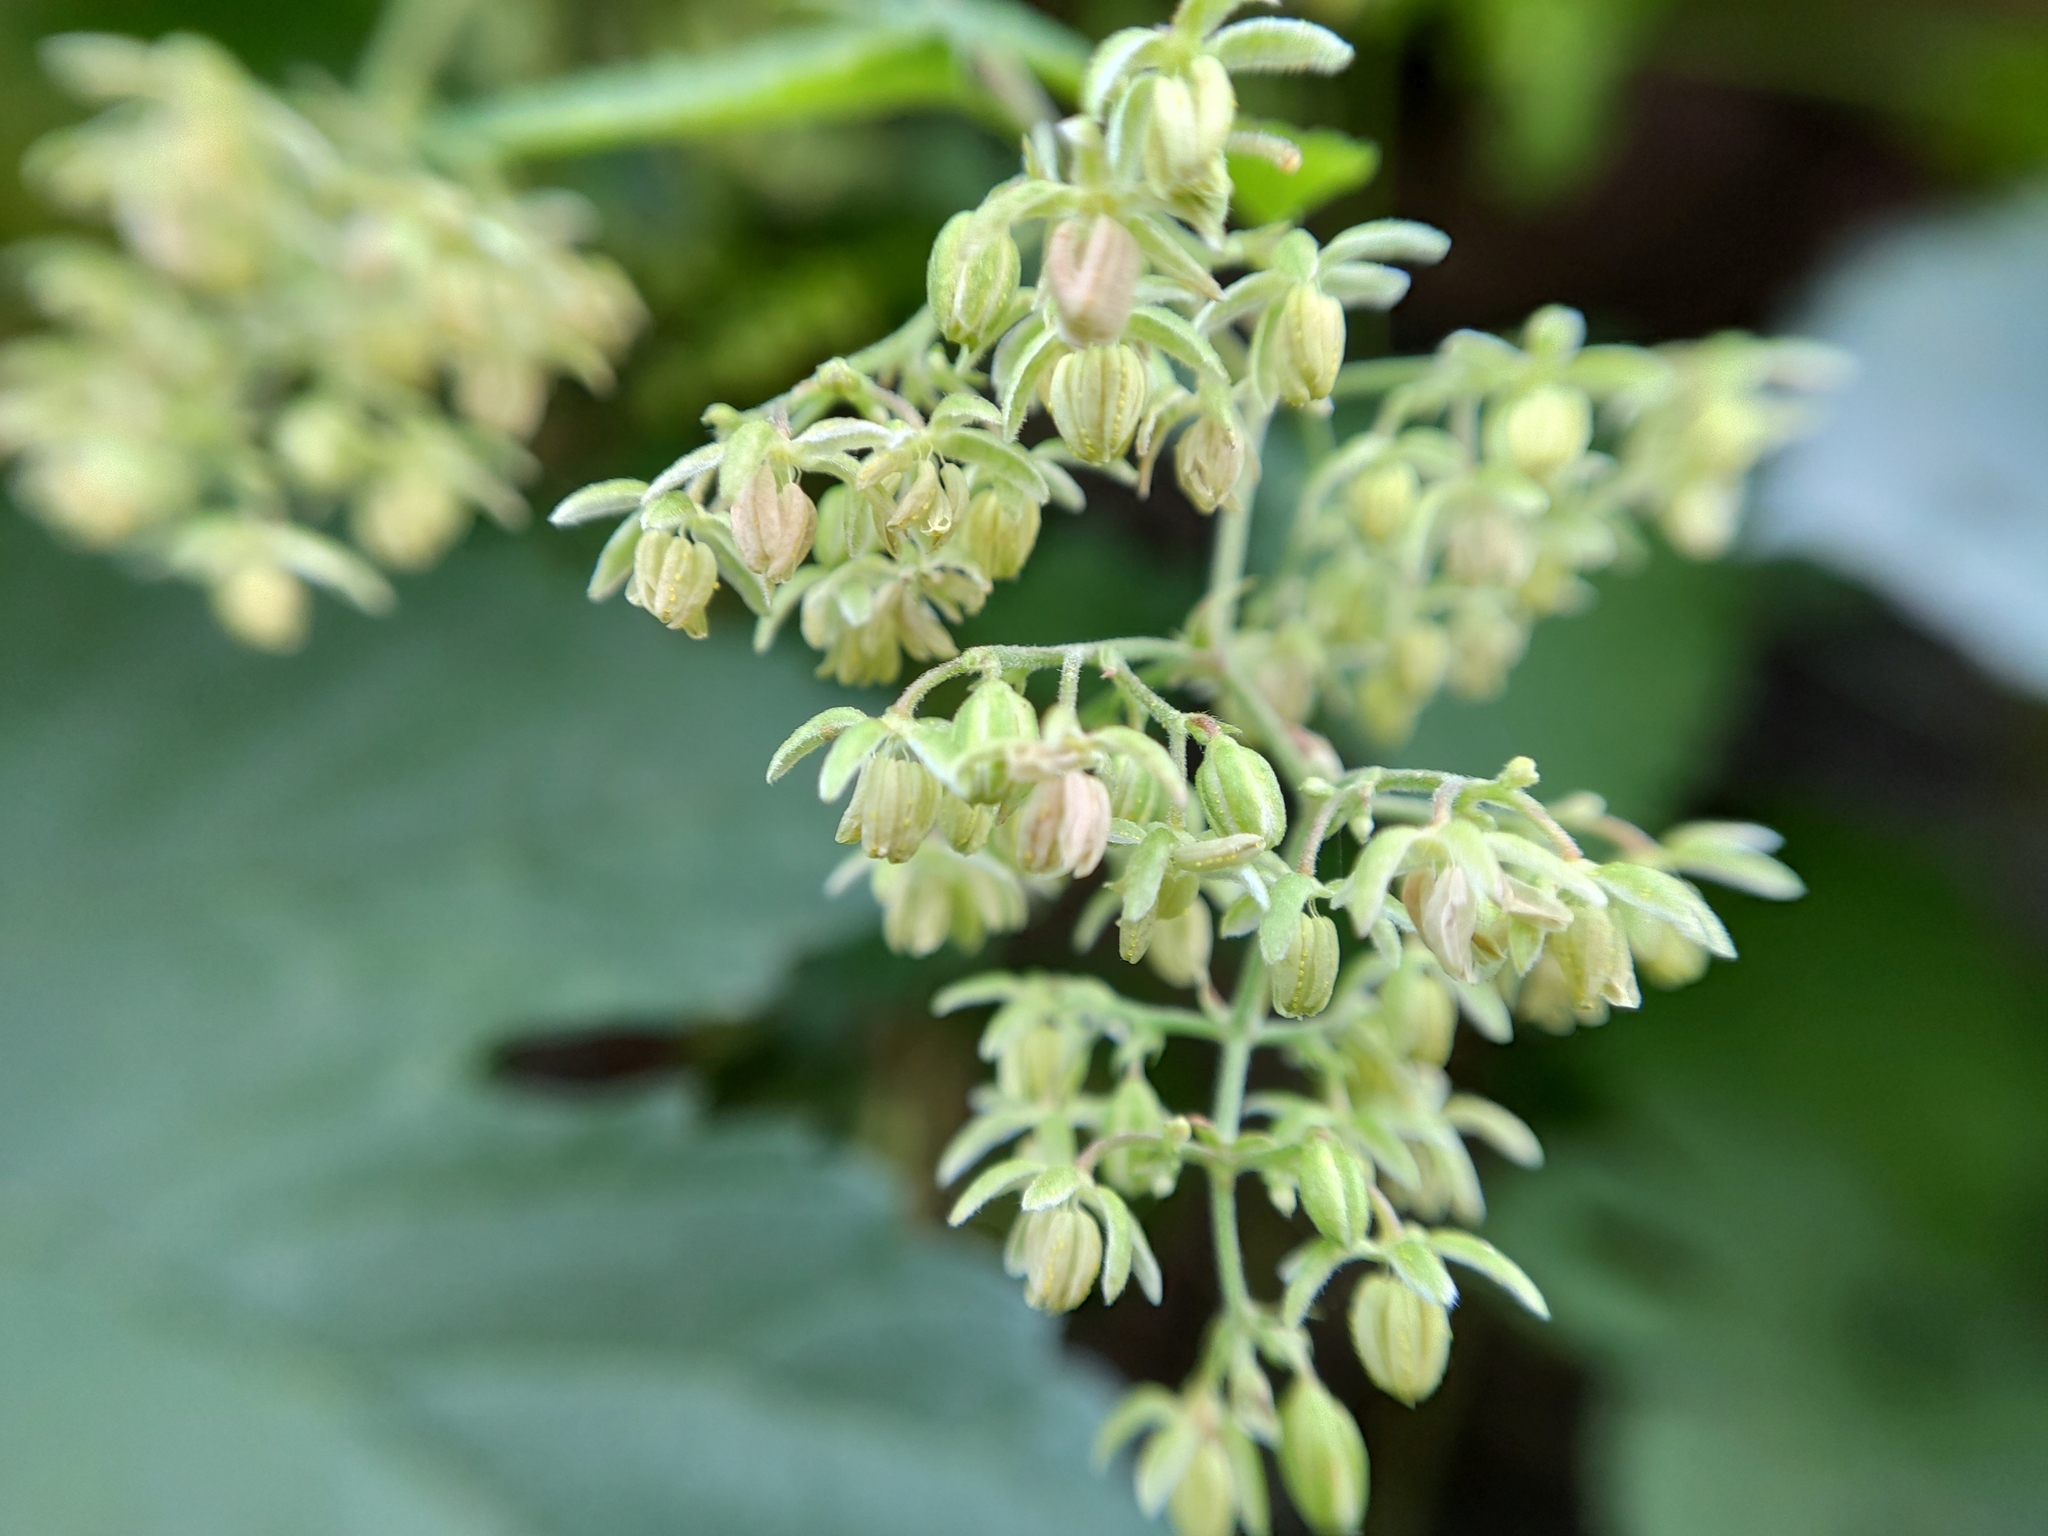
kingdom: Plantae
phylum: Tracheophyta
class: Magnoliopsida
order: Rosales
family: Cannabaceae
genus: Humulus
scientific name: Humulus lupulus
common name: Hop
